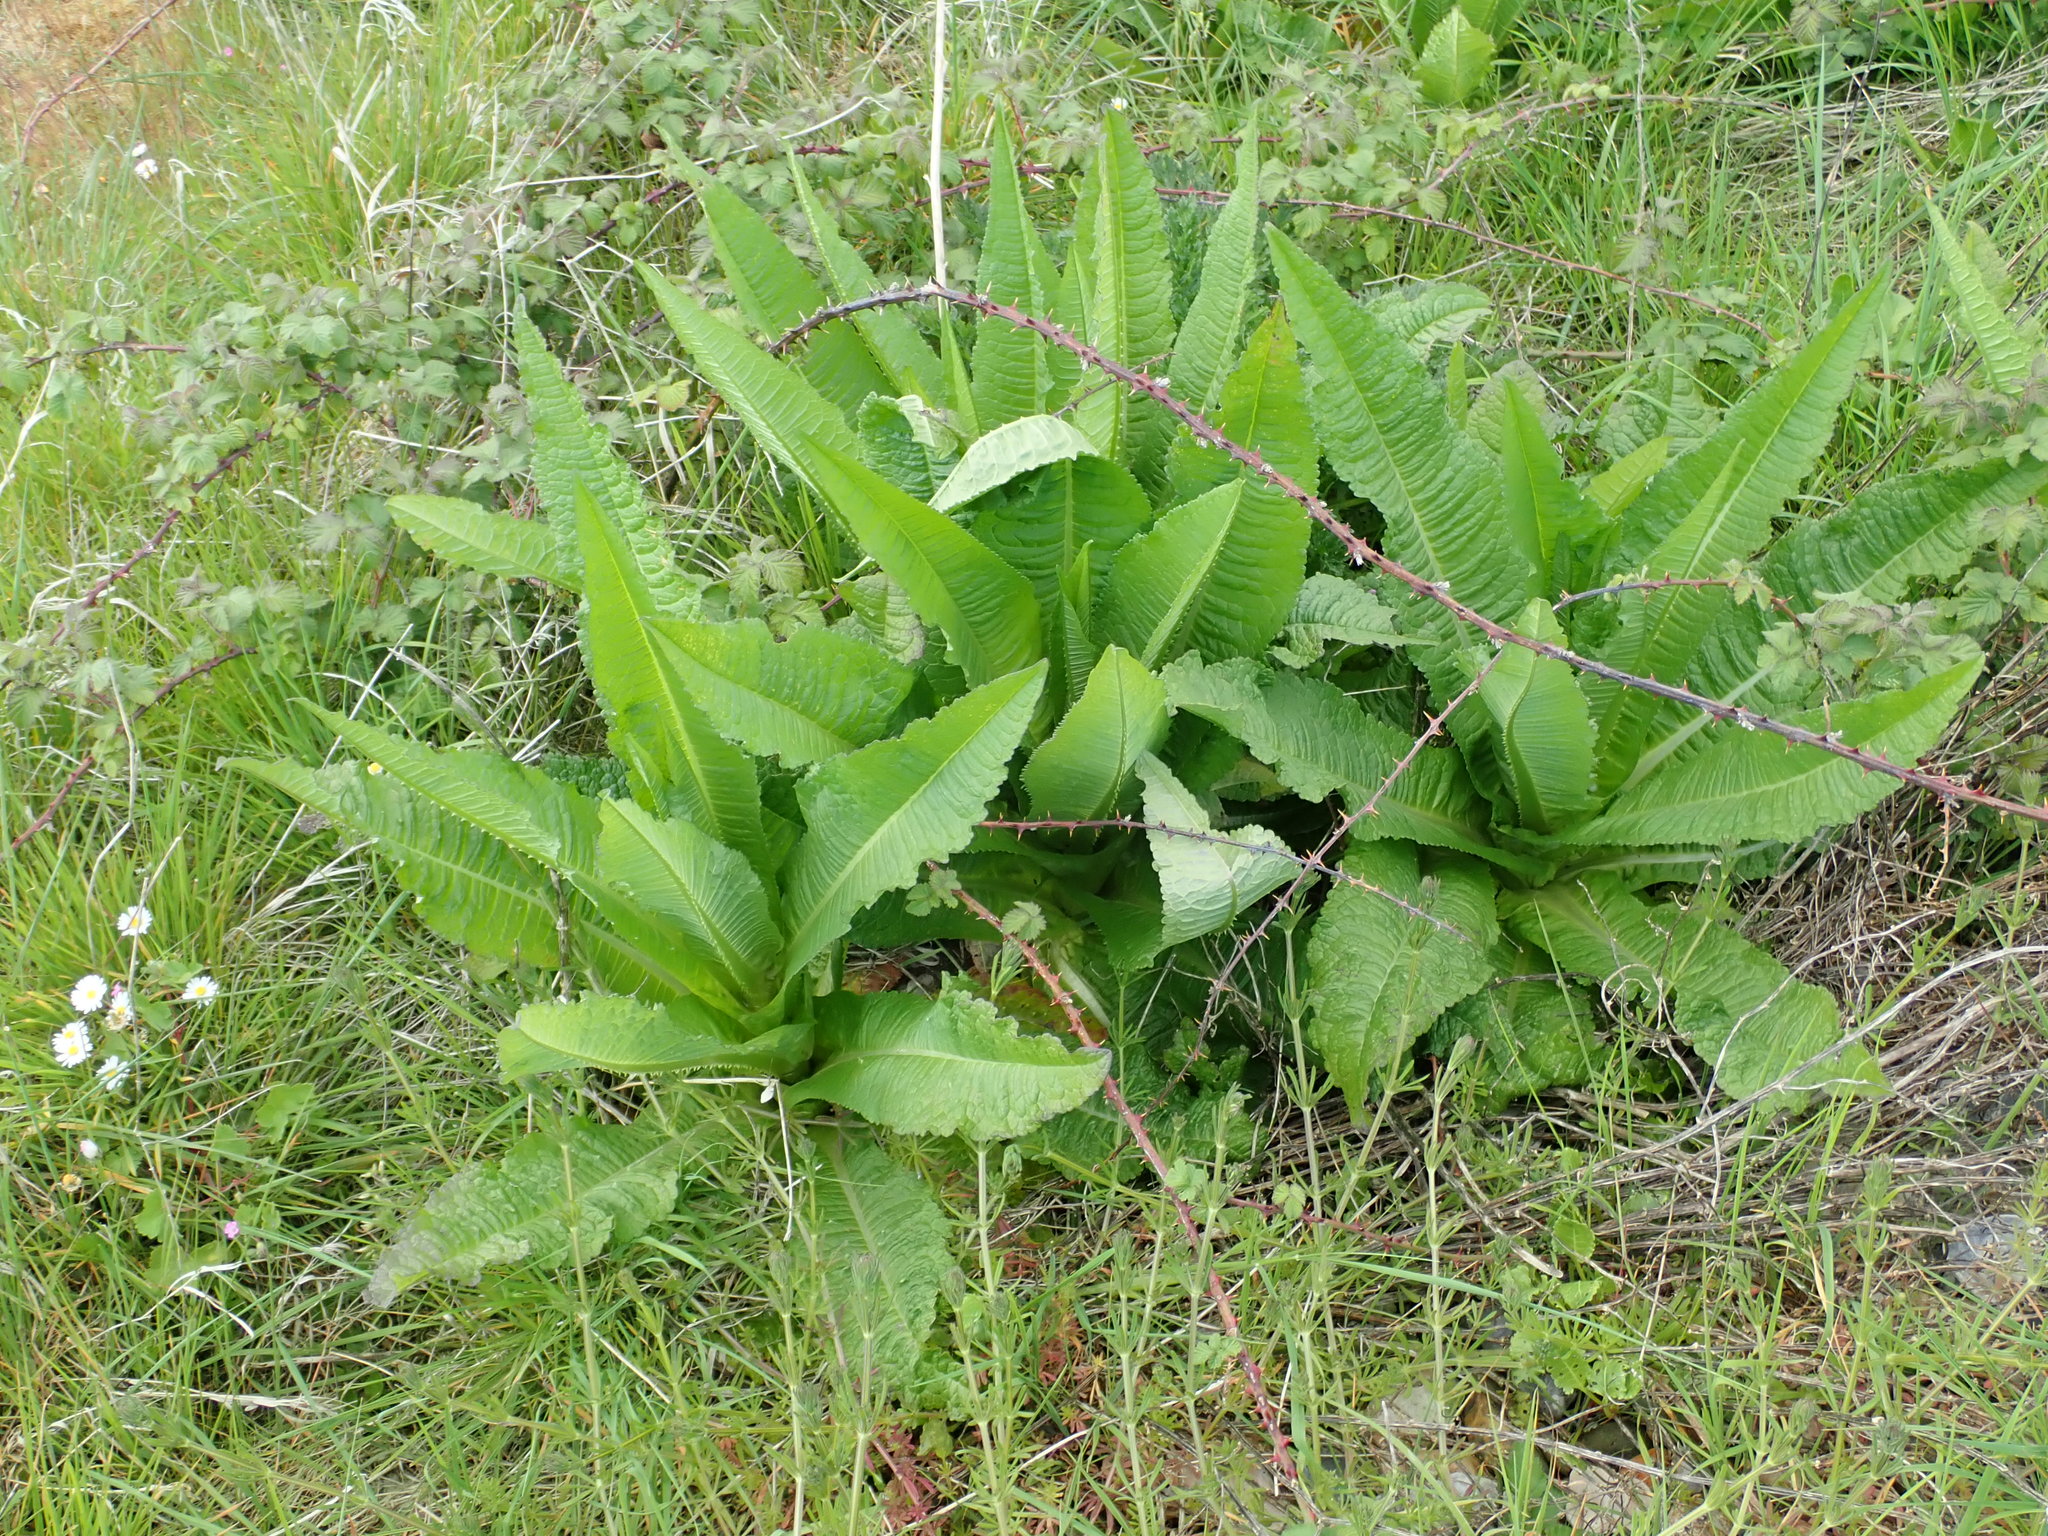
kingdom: Plantae
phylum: Tracheophyta
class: Magnoliopsida
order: Dipsacales
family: Caprifoliaceae
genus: Dipsacus
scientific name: Dipsacus fullonum
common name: Teasel
